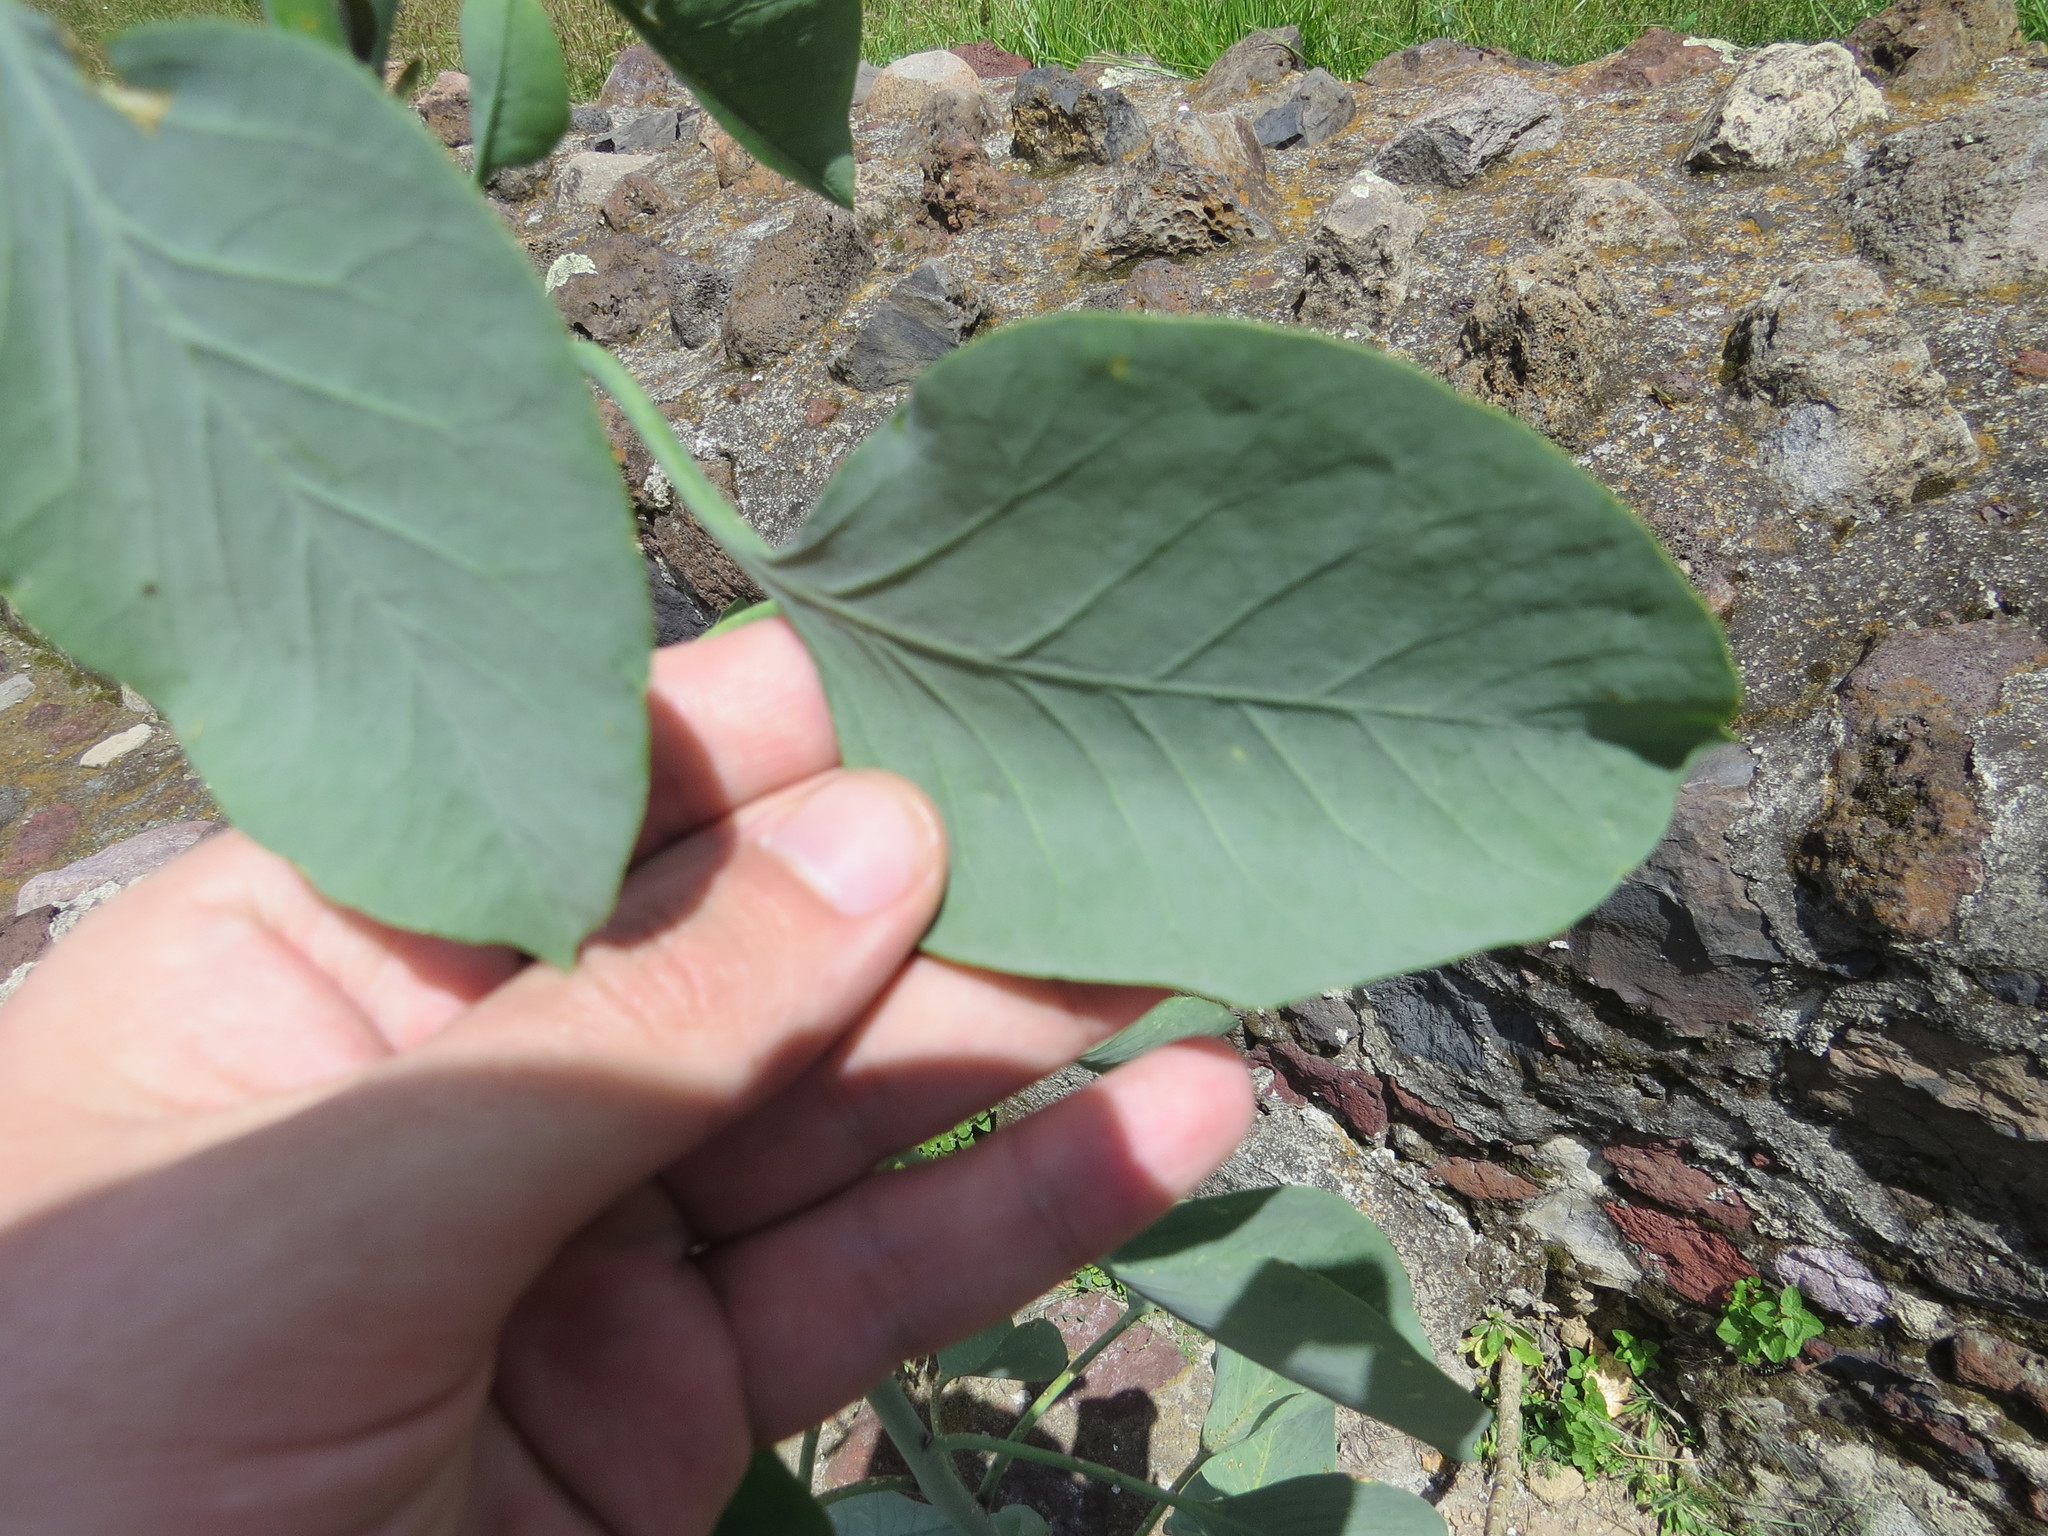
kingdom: Plantae
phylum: Tracheophyta
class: Magnoliopsida
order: Solanales
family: Solanaceae
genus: Nicotiana
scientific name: Nicotiana glauca
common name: Tree tobacco
